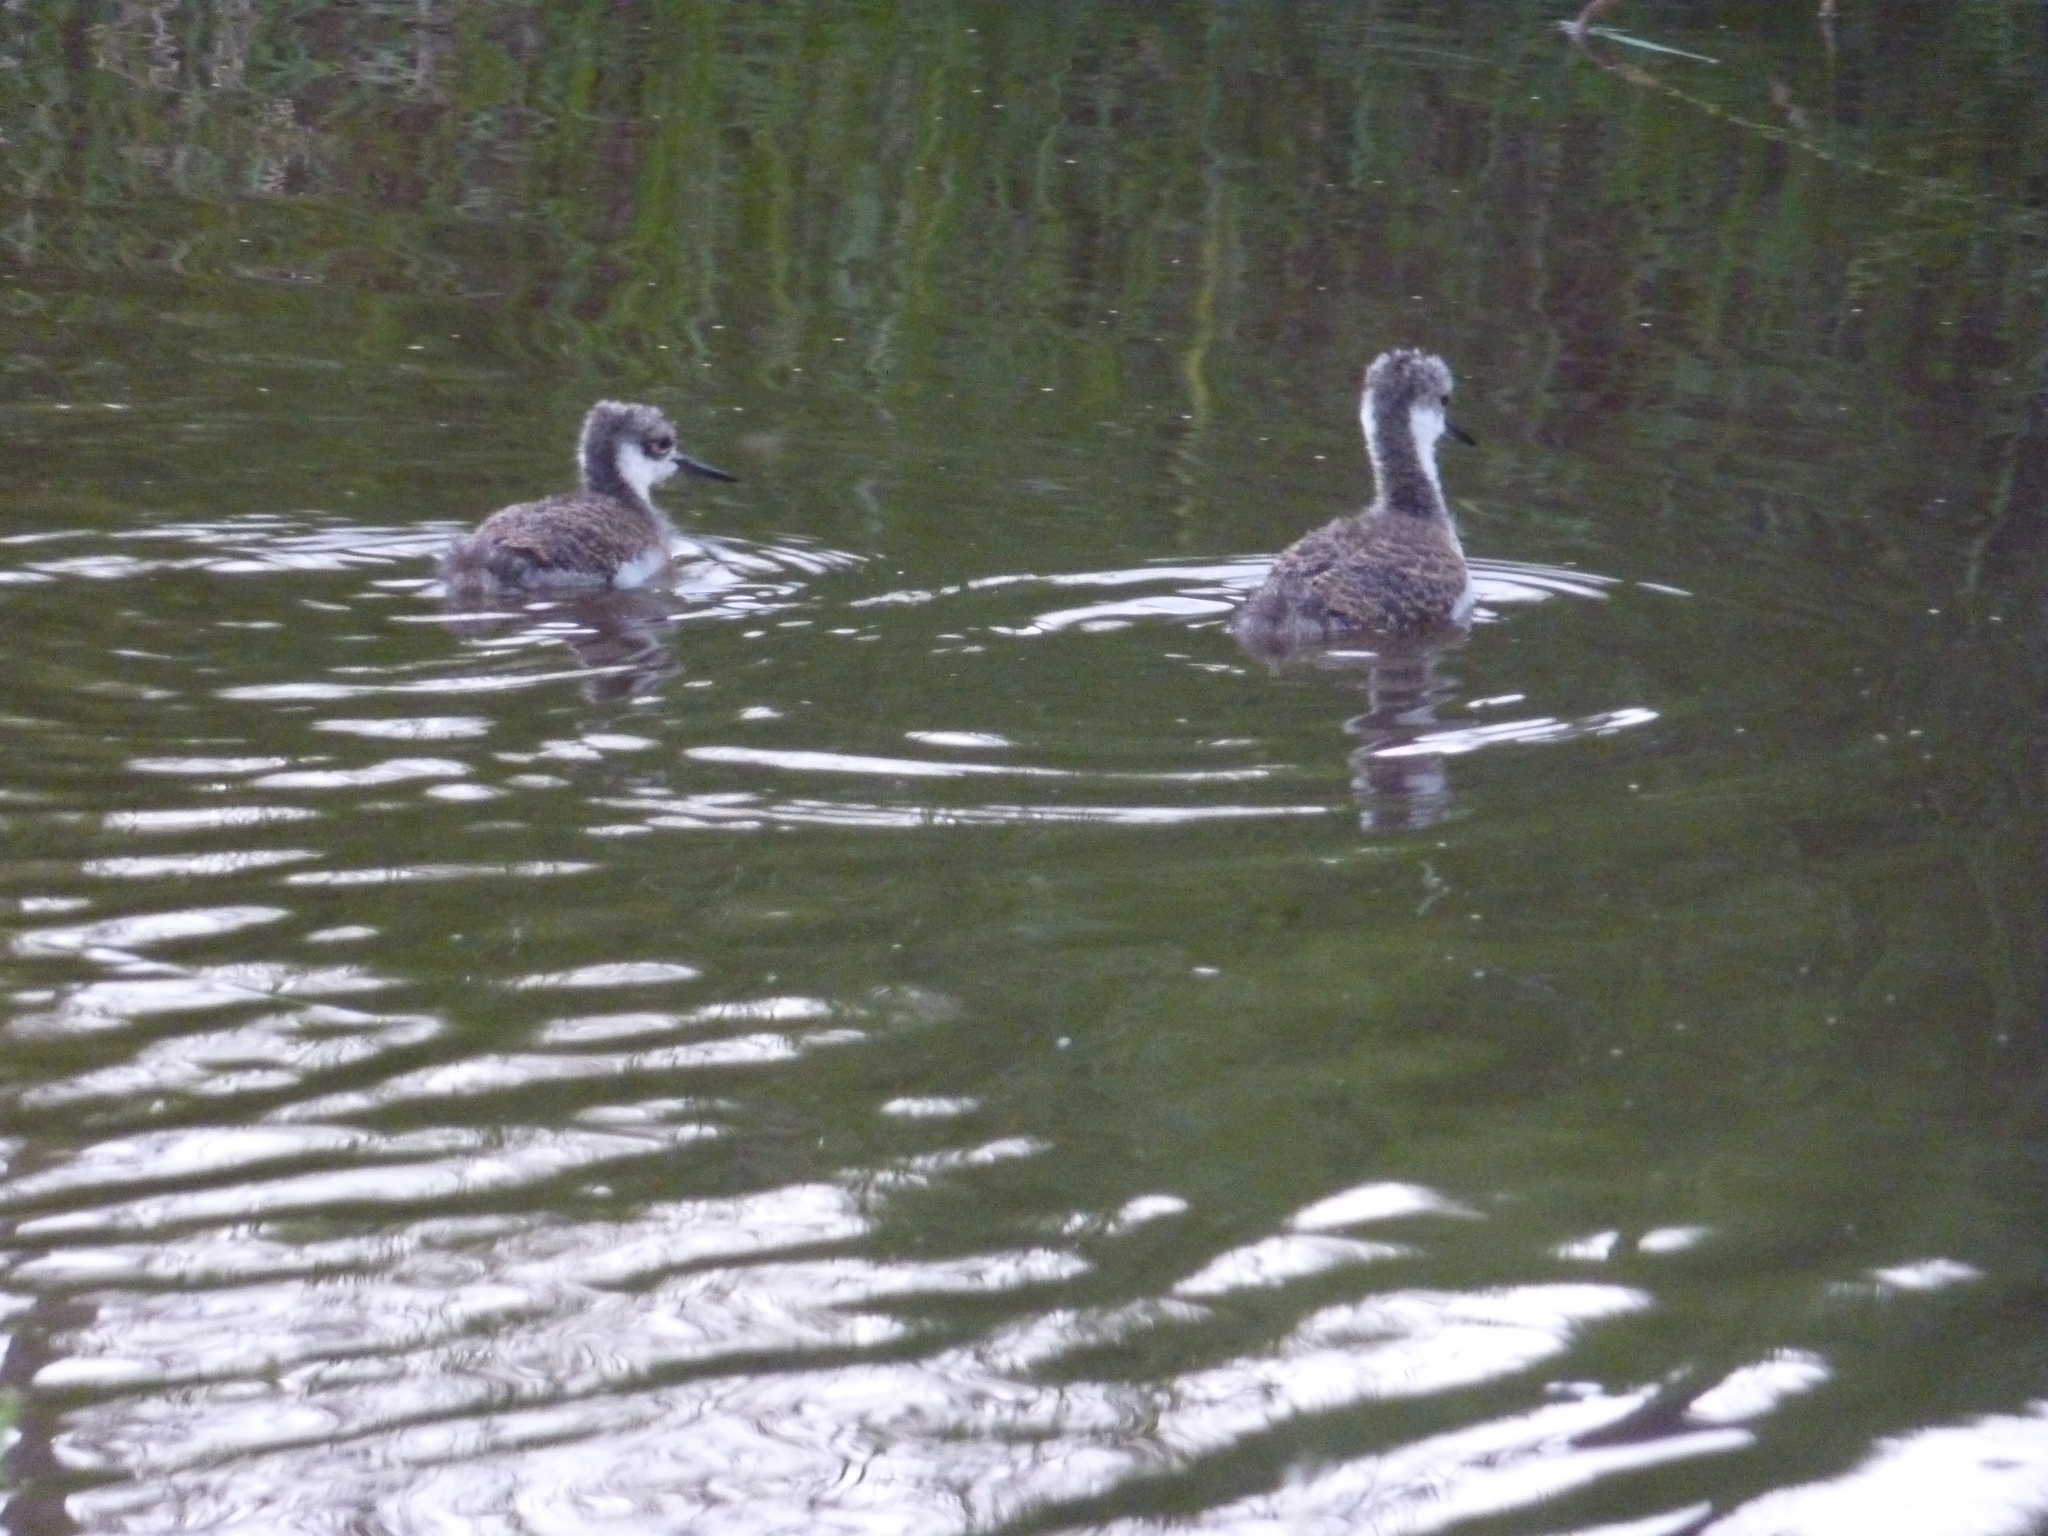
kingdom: Animalia
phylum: Chordata
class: Aves
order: Charadriiformes
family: Recurvirostridae
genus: Himantopus
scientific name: Himantopus mexicanus
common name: Black-necked stilt
